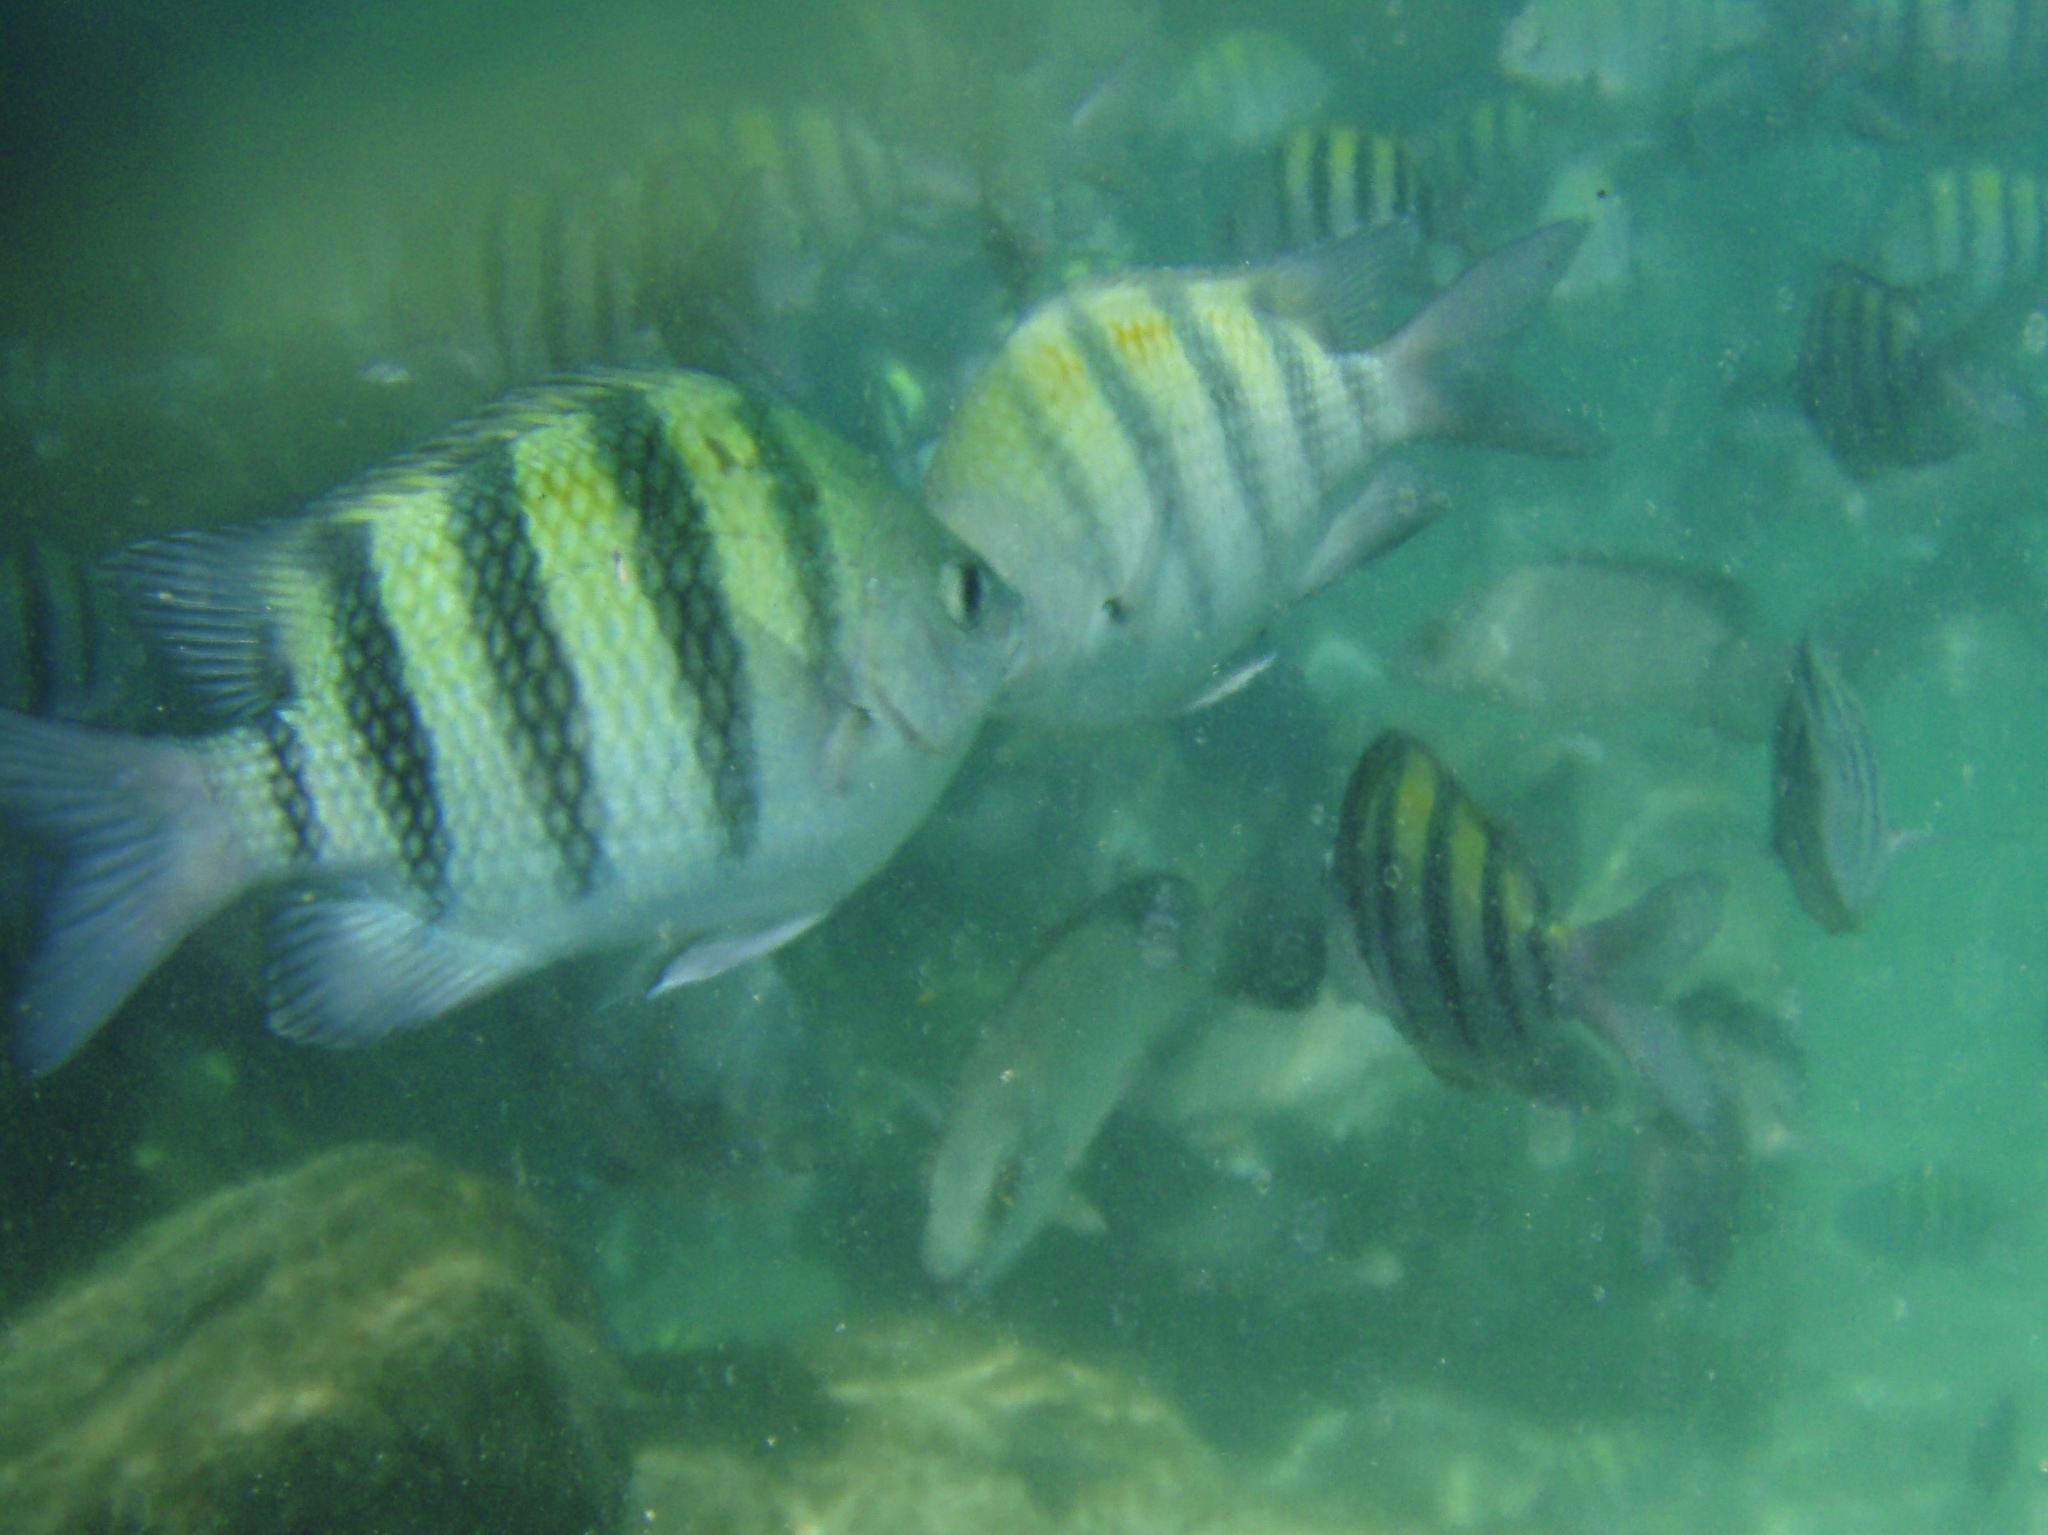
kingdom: Animalia
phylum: Chordata
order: Perciformes
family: Pomacentridae
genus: Abudefduf
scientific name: Abudefduf saxatilis
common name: Sergeant major
